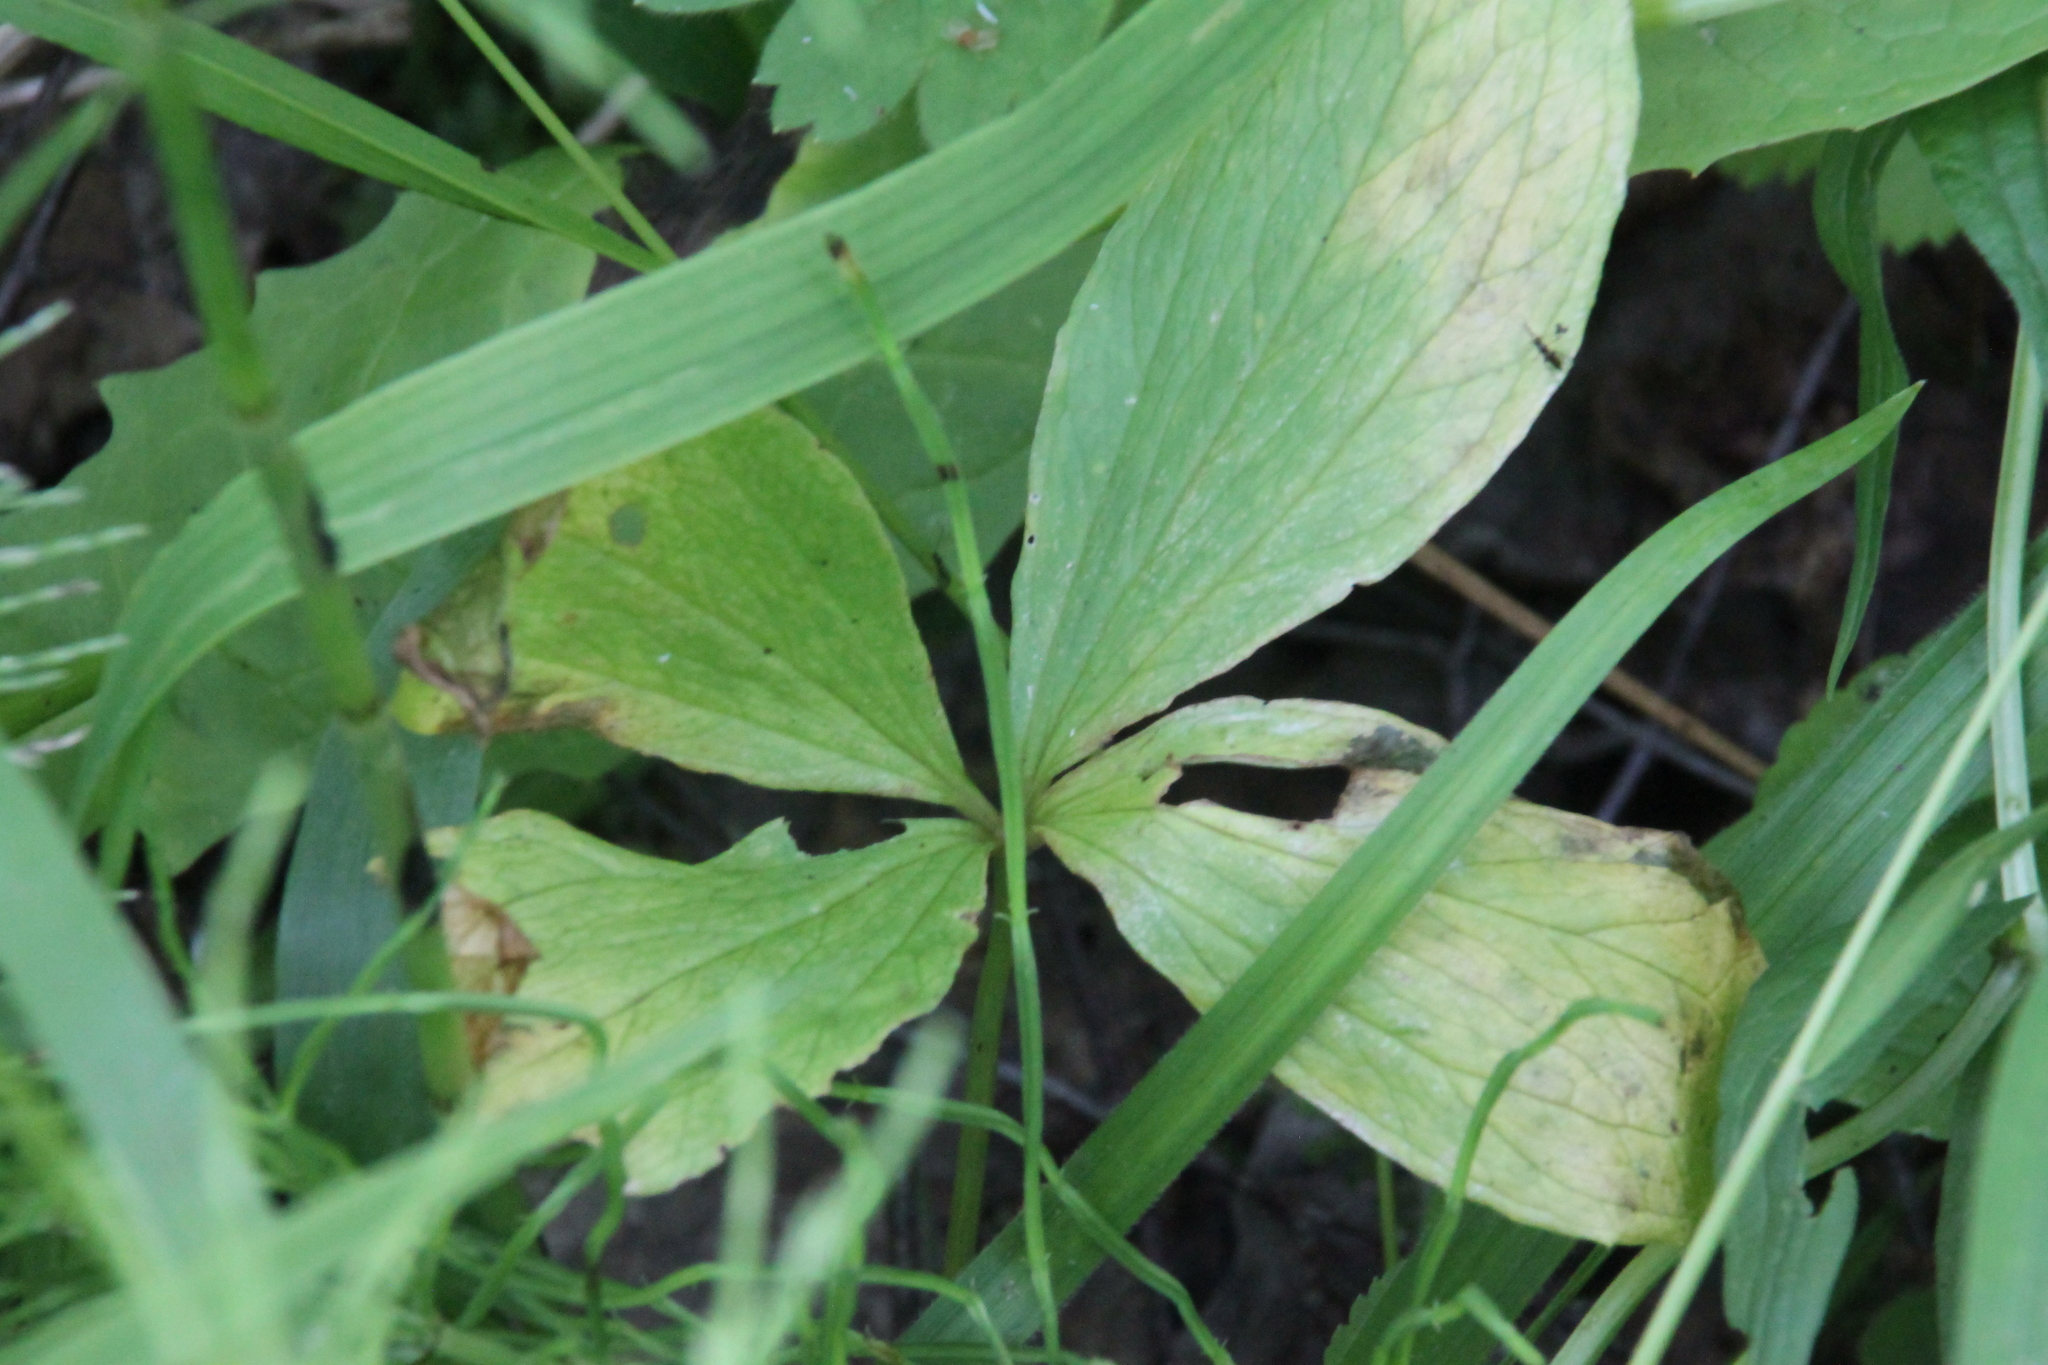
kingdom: Plantae
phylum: Tracheophyta
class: Liliopsida
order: Liliales
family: Melanthiaceae
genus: Paris
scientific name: Paris quadrifolia
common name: Herb-paris
